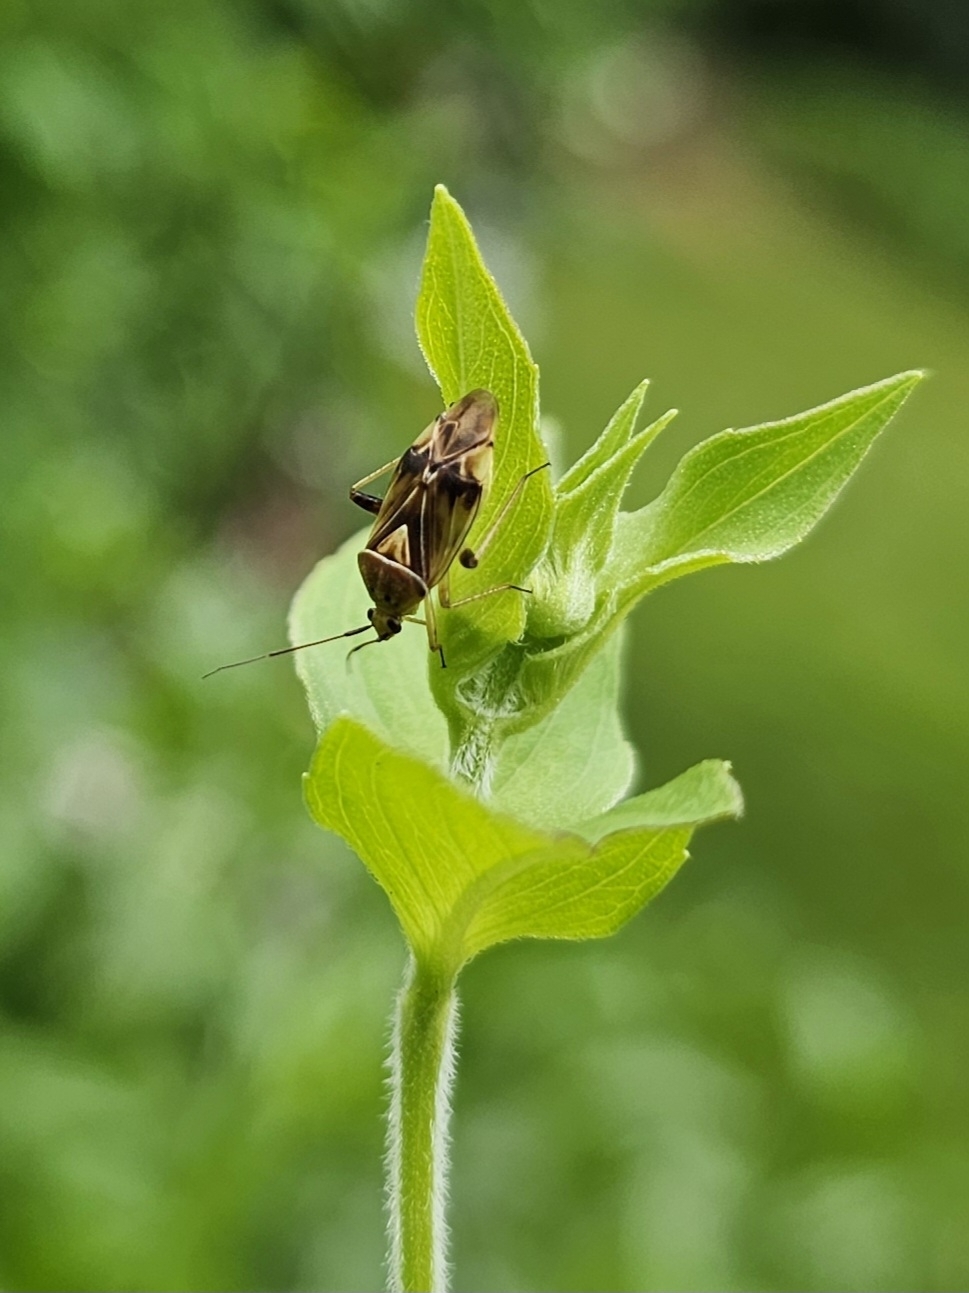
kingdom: Animalia
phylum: Arthropoda
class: Insecta
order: Hemiptera
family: Miridae
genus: Lygus
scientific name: Lygus lineolaris
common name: North american tarnished plant bug
